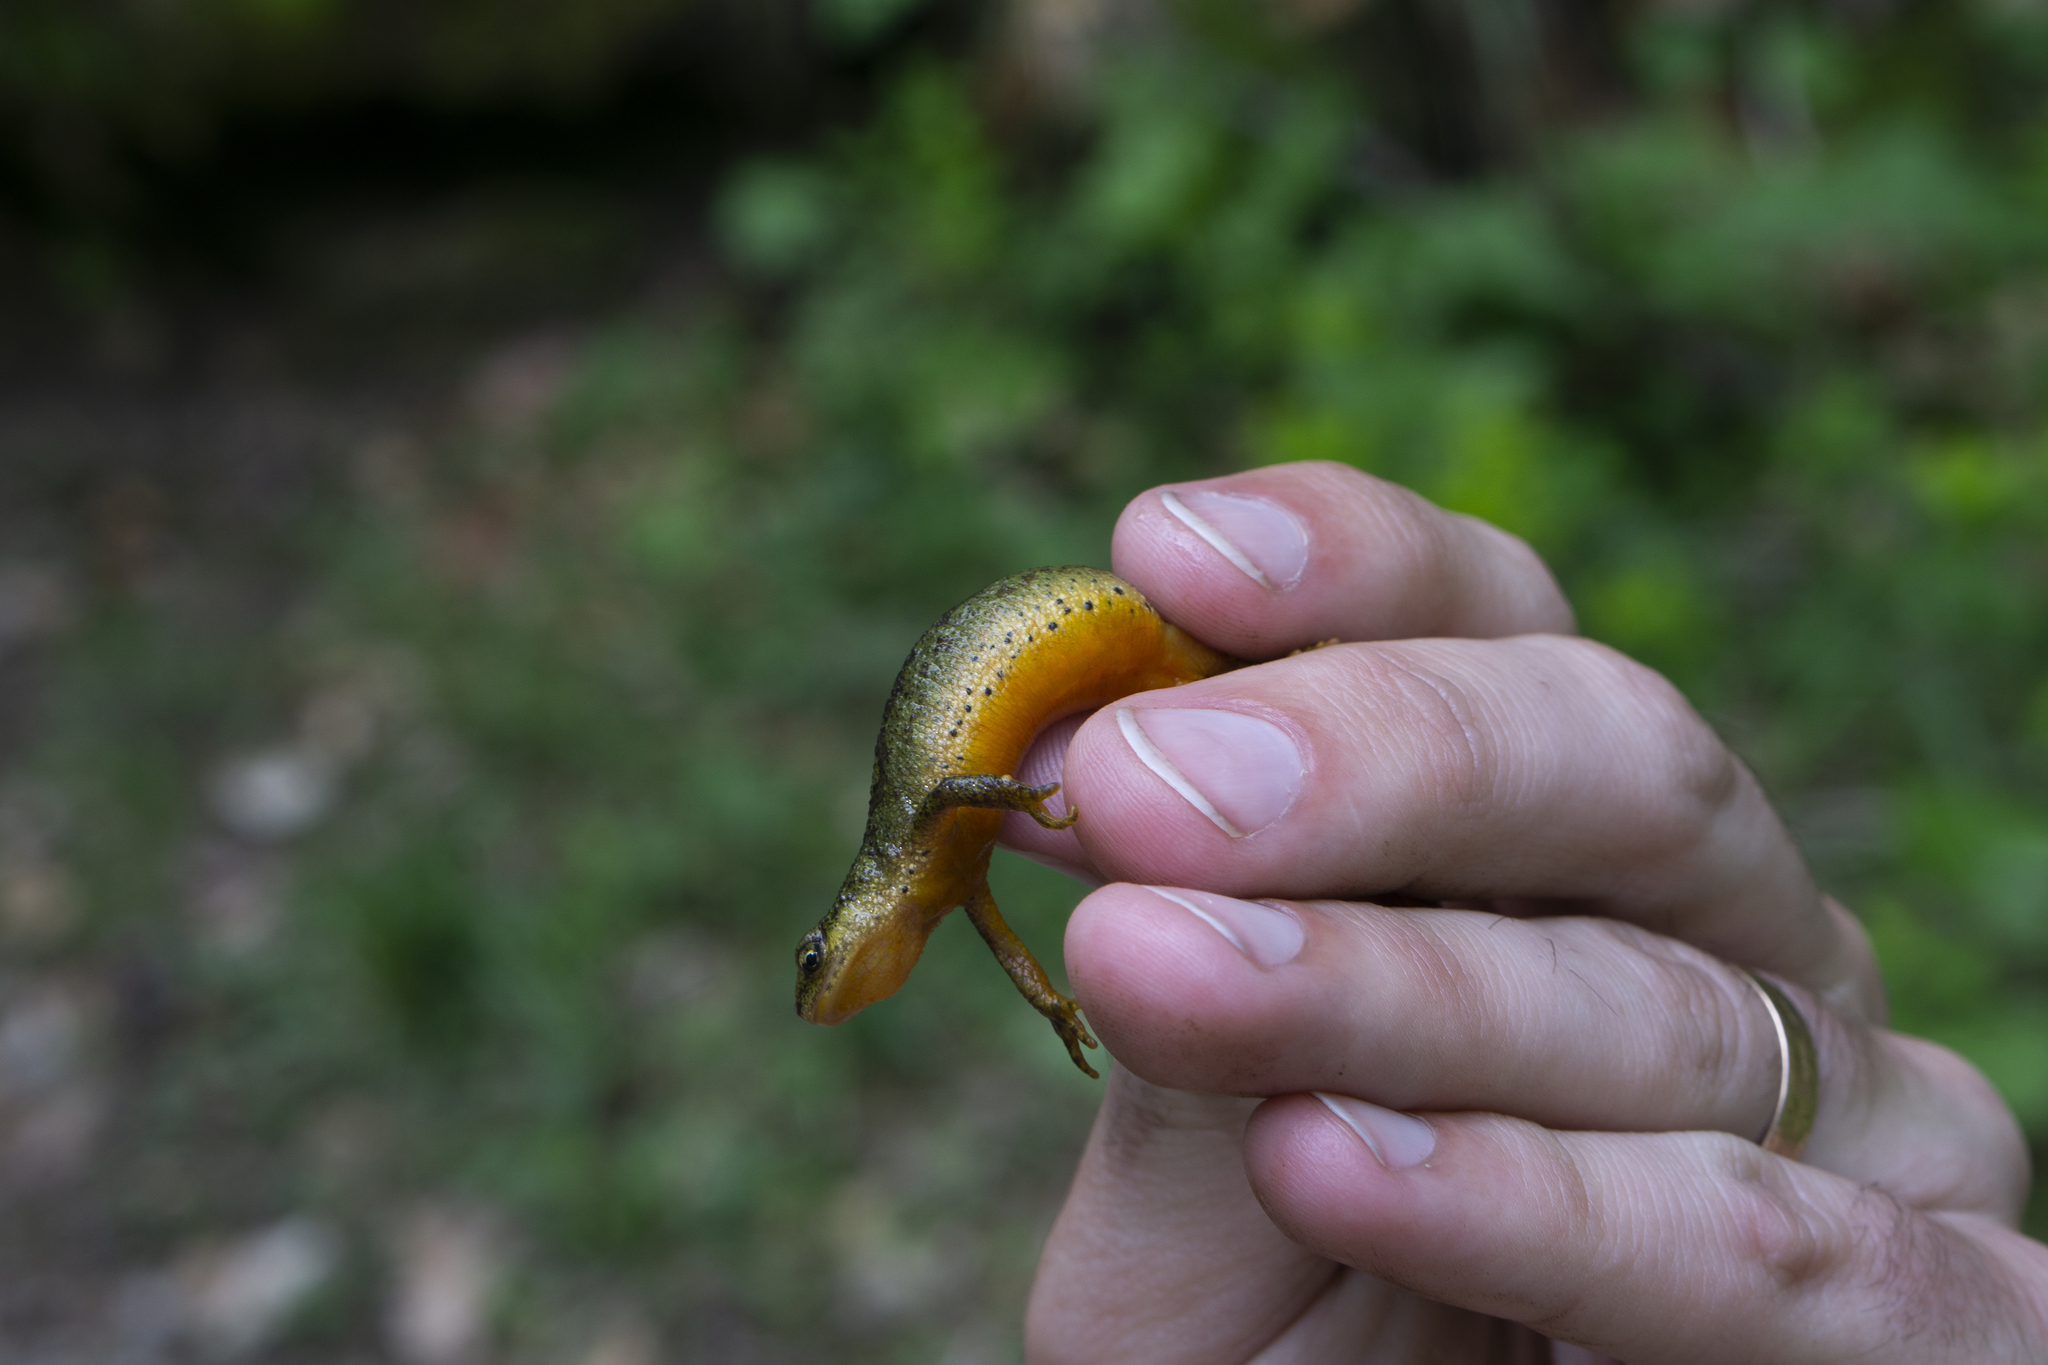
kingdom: Animalia
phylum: Chordata
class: Amphibia
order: Caudata
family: Salamandridae
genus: Lissotriton
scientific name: Lissotriton montandoni
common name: Carpathian newt
